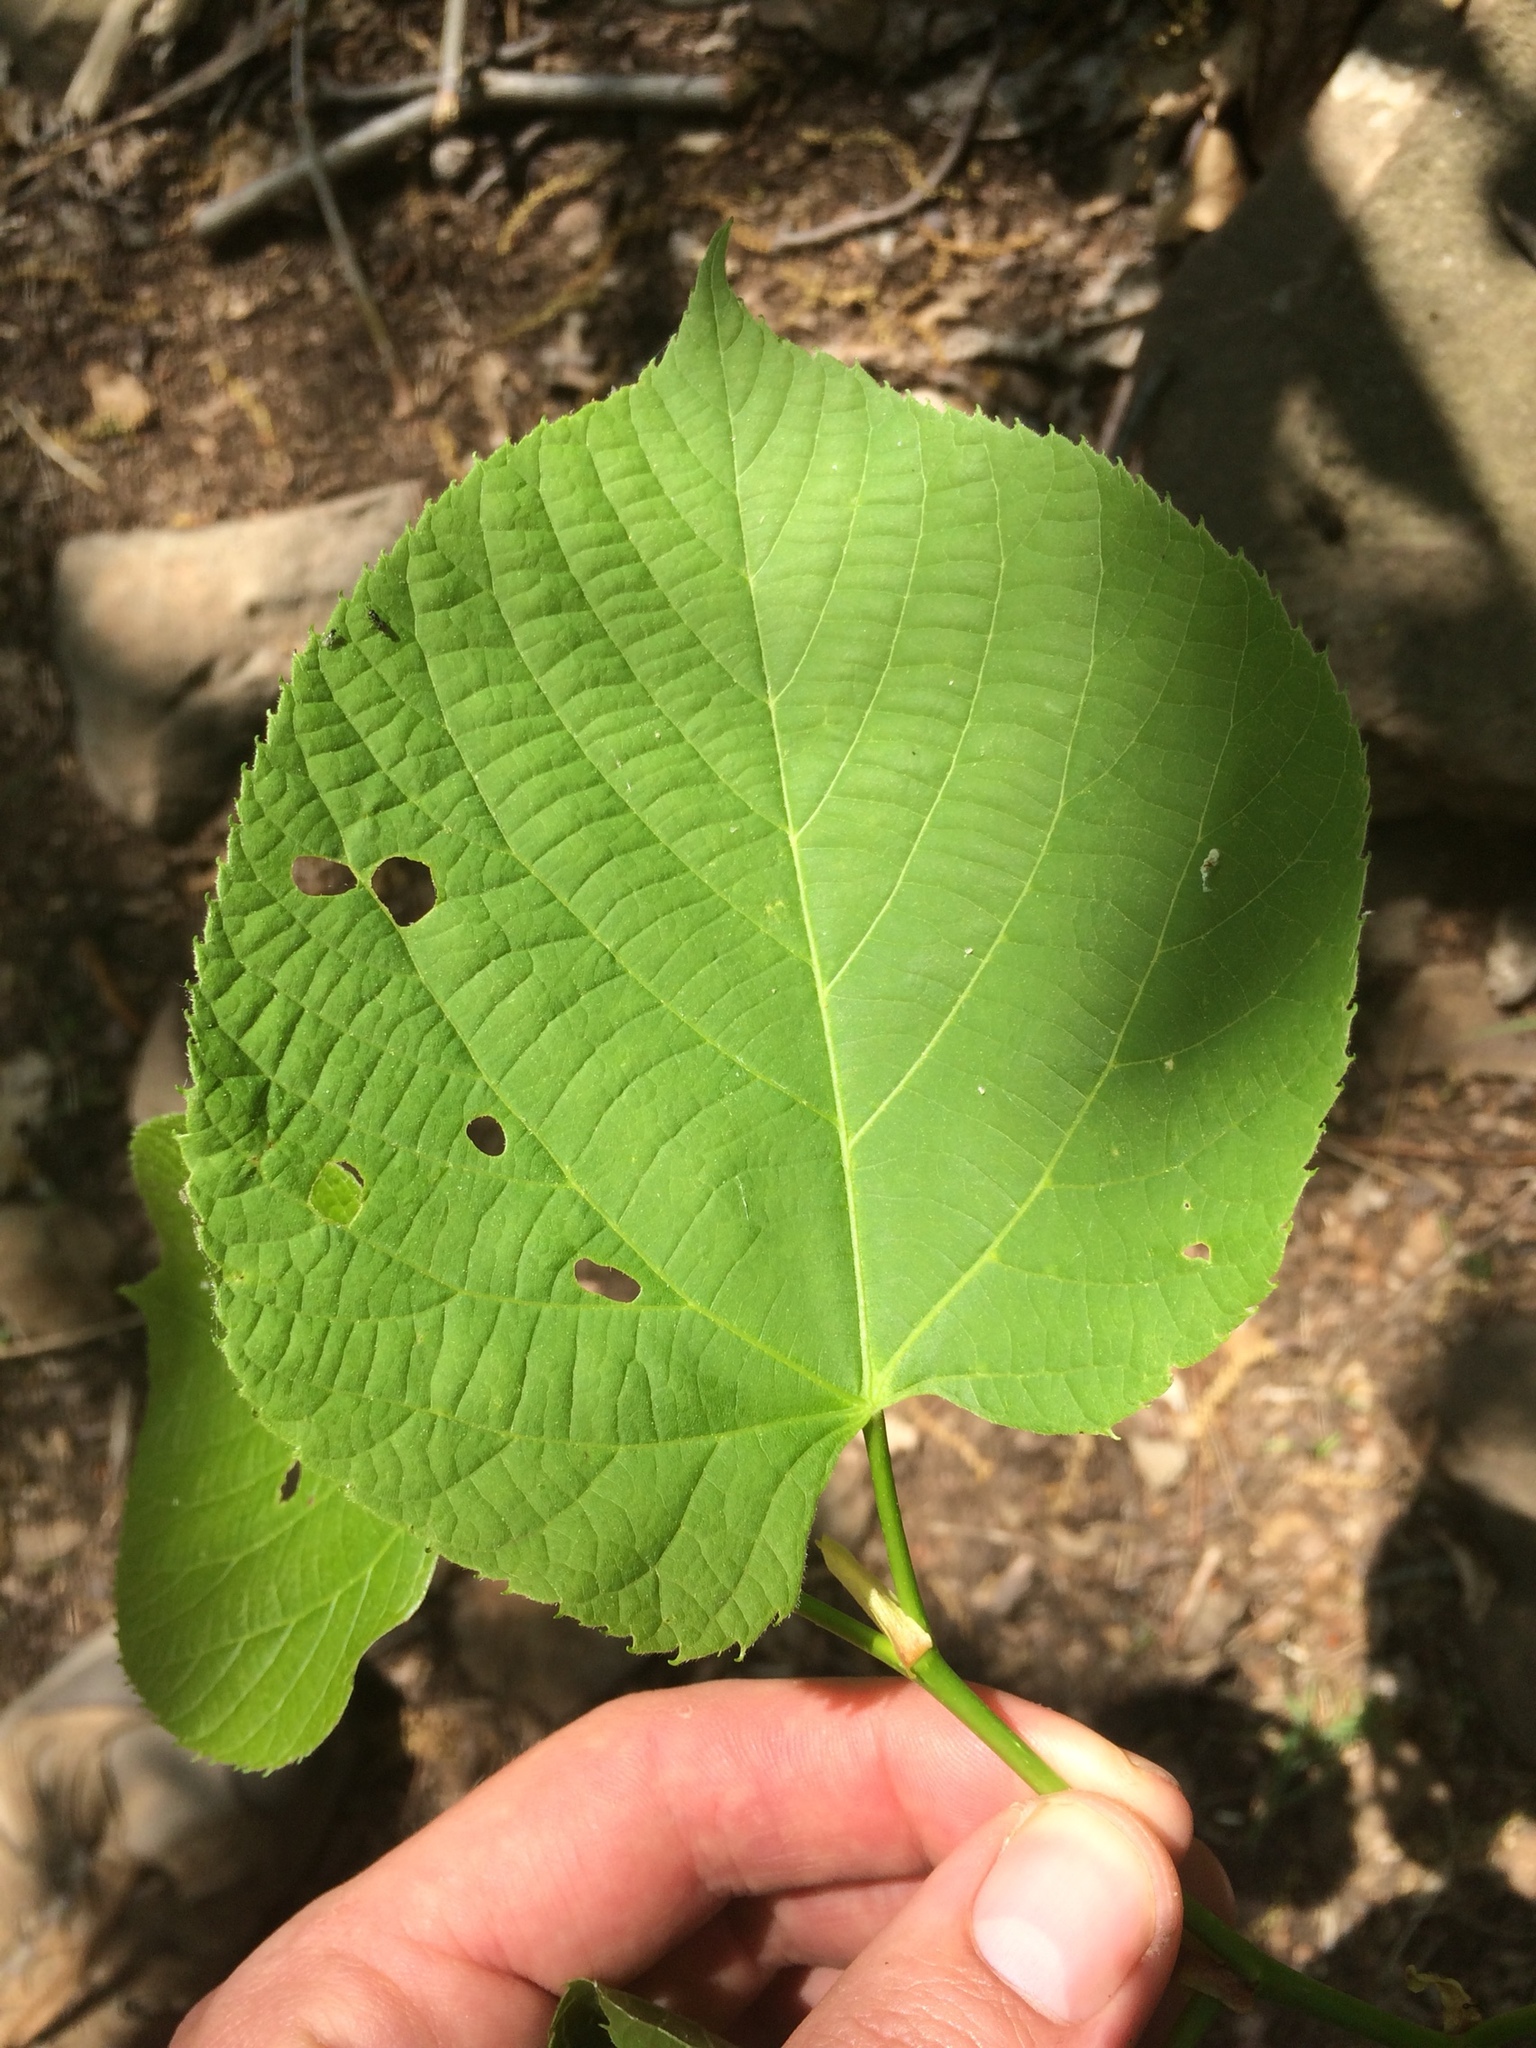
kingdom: Plantae
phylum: Tracheophyta
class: Magnoliopsida
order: Malvales
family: Malvaceae
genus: Tilia
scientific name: Tilia americana
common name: Basswood
